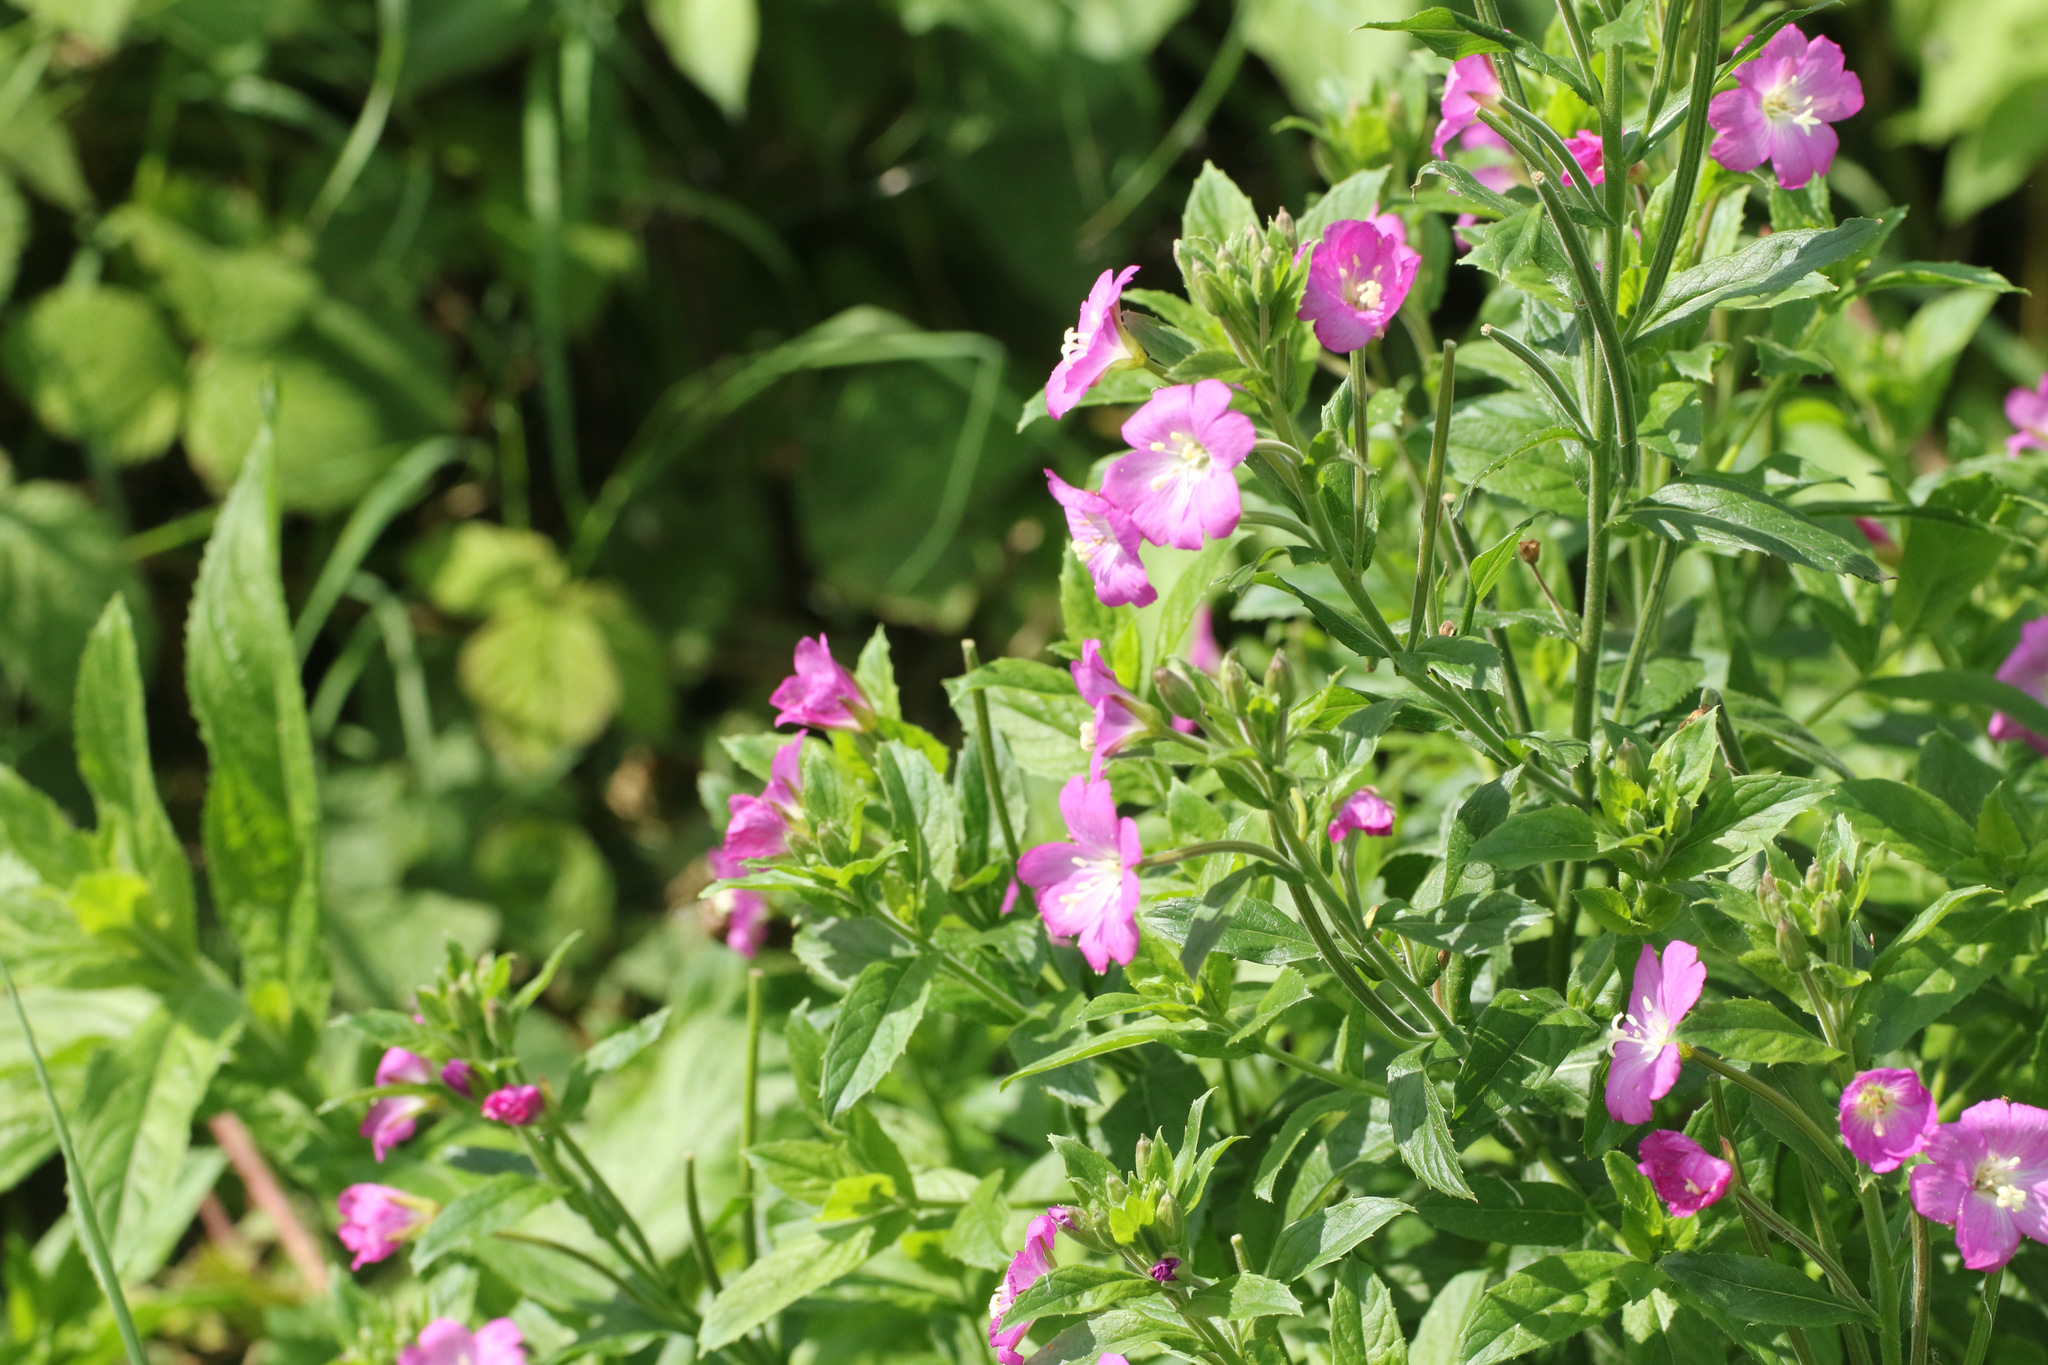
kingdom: Plantae
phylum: Tracheophyta
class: Magnoliopsida
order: Myrtales
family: Onagraceae
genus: Epilobium
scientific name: Epilobium hirsutum
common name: Great willowherb
